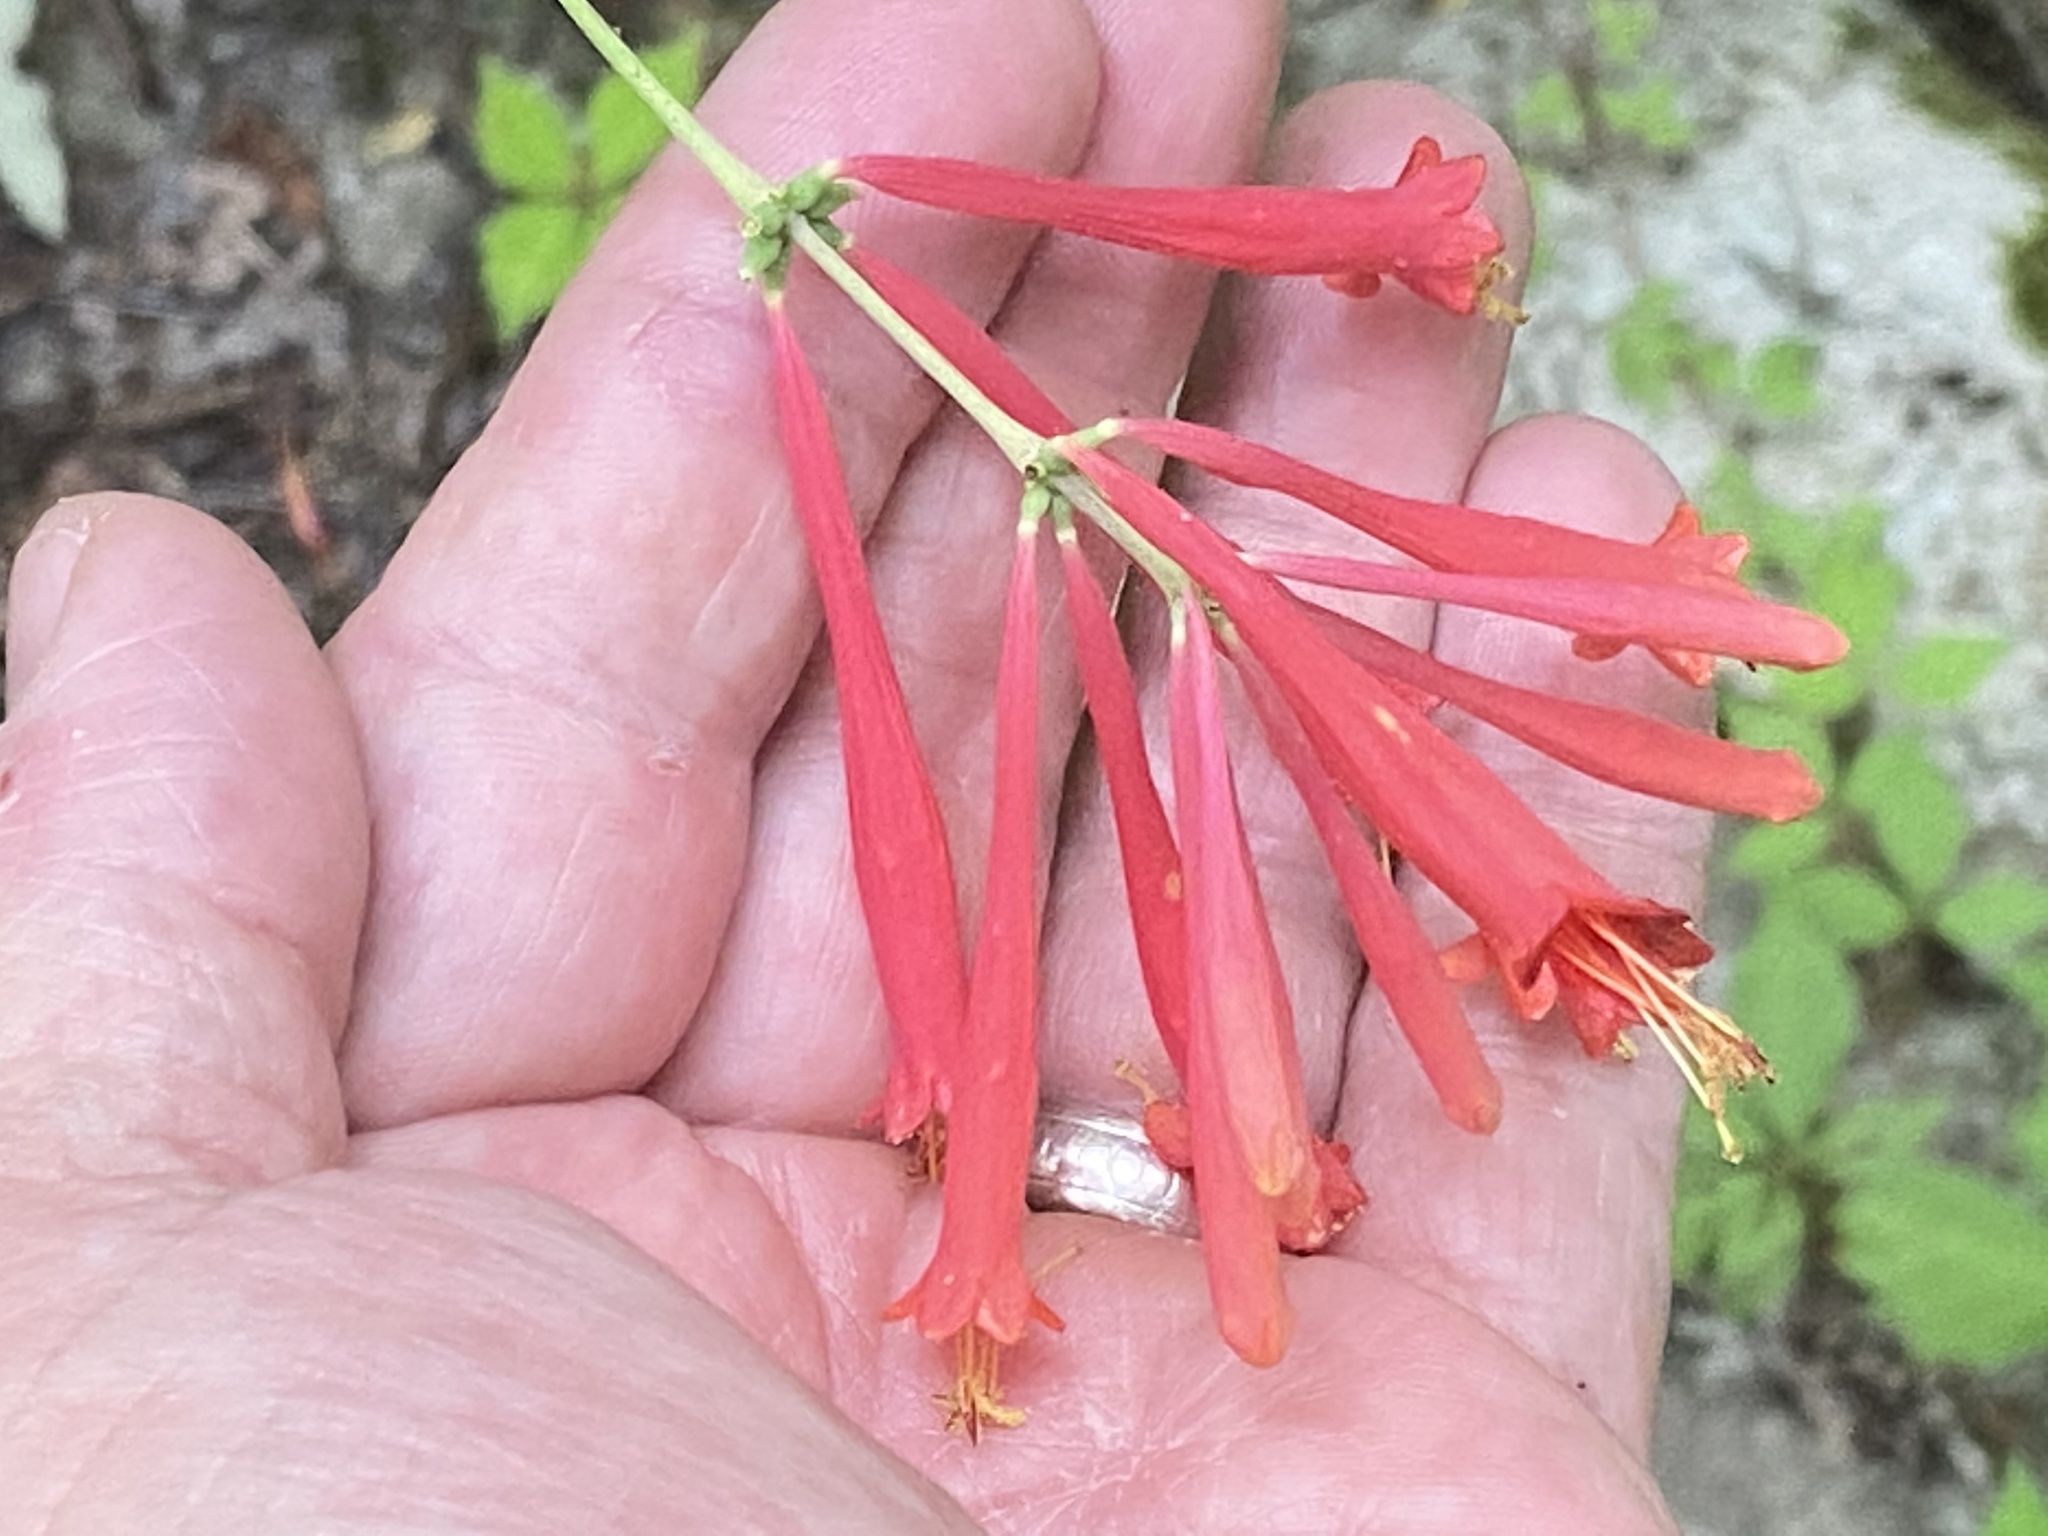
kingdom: Plantae
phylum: Tracheophyta
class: Magnoliopsida
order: Dipsacales
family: Caprifoliaceae
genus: Lonicera
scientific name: Lonicera sempervirens
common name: Coral honeysuckle
